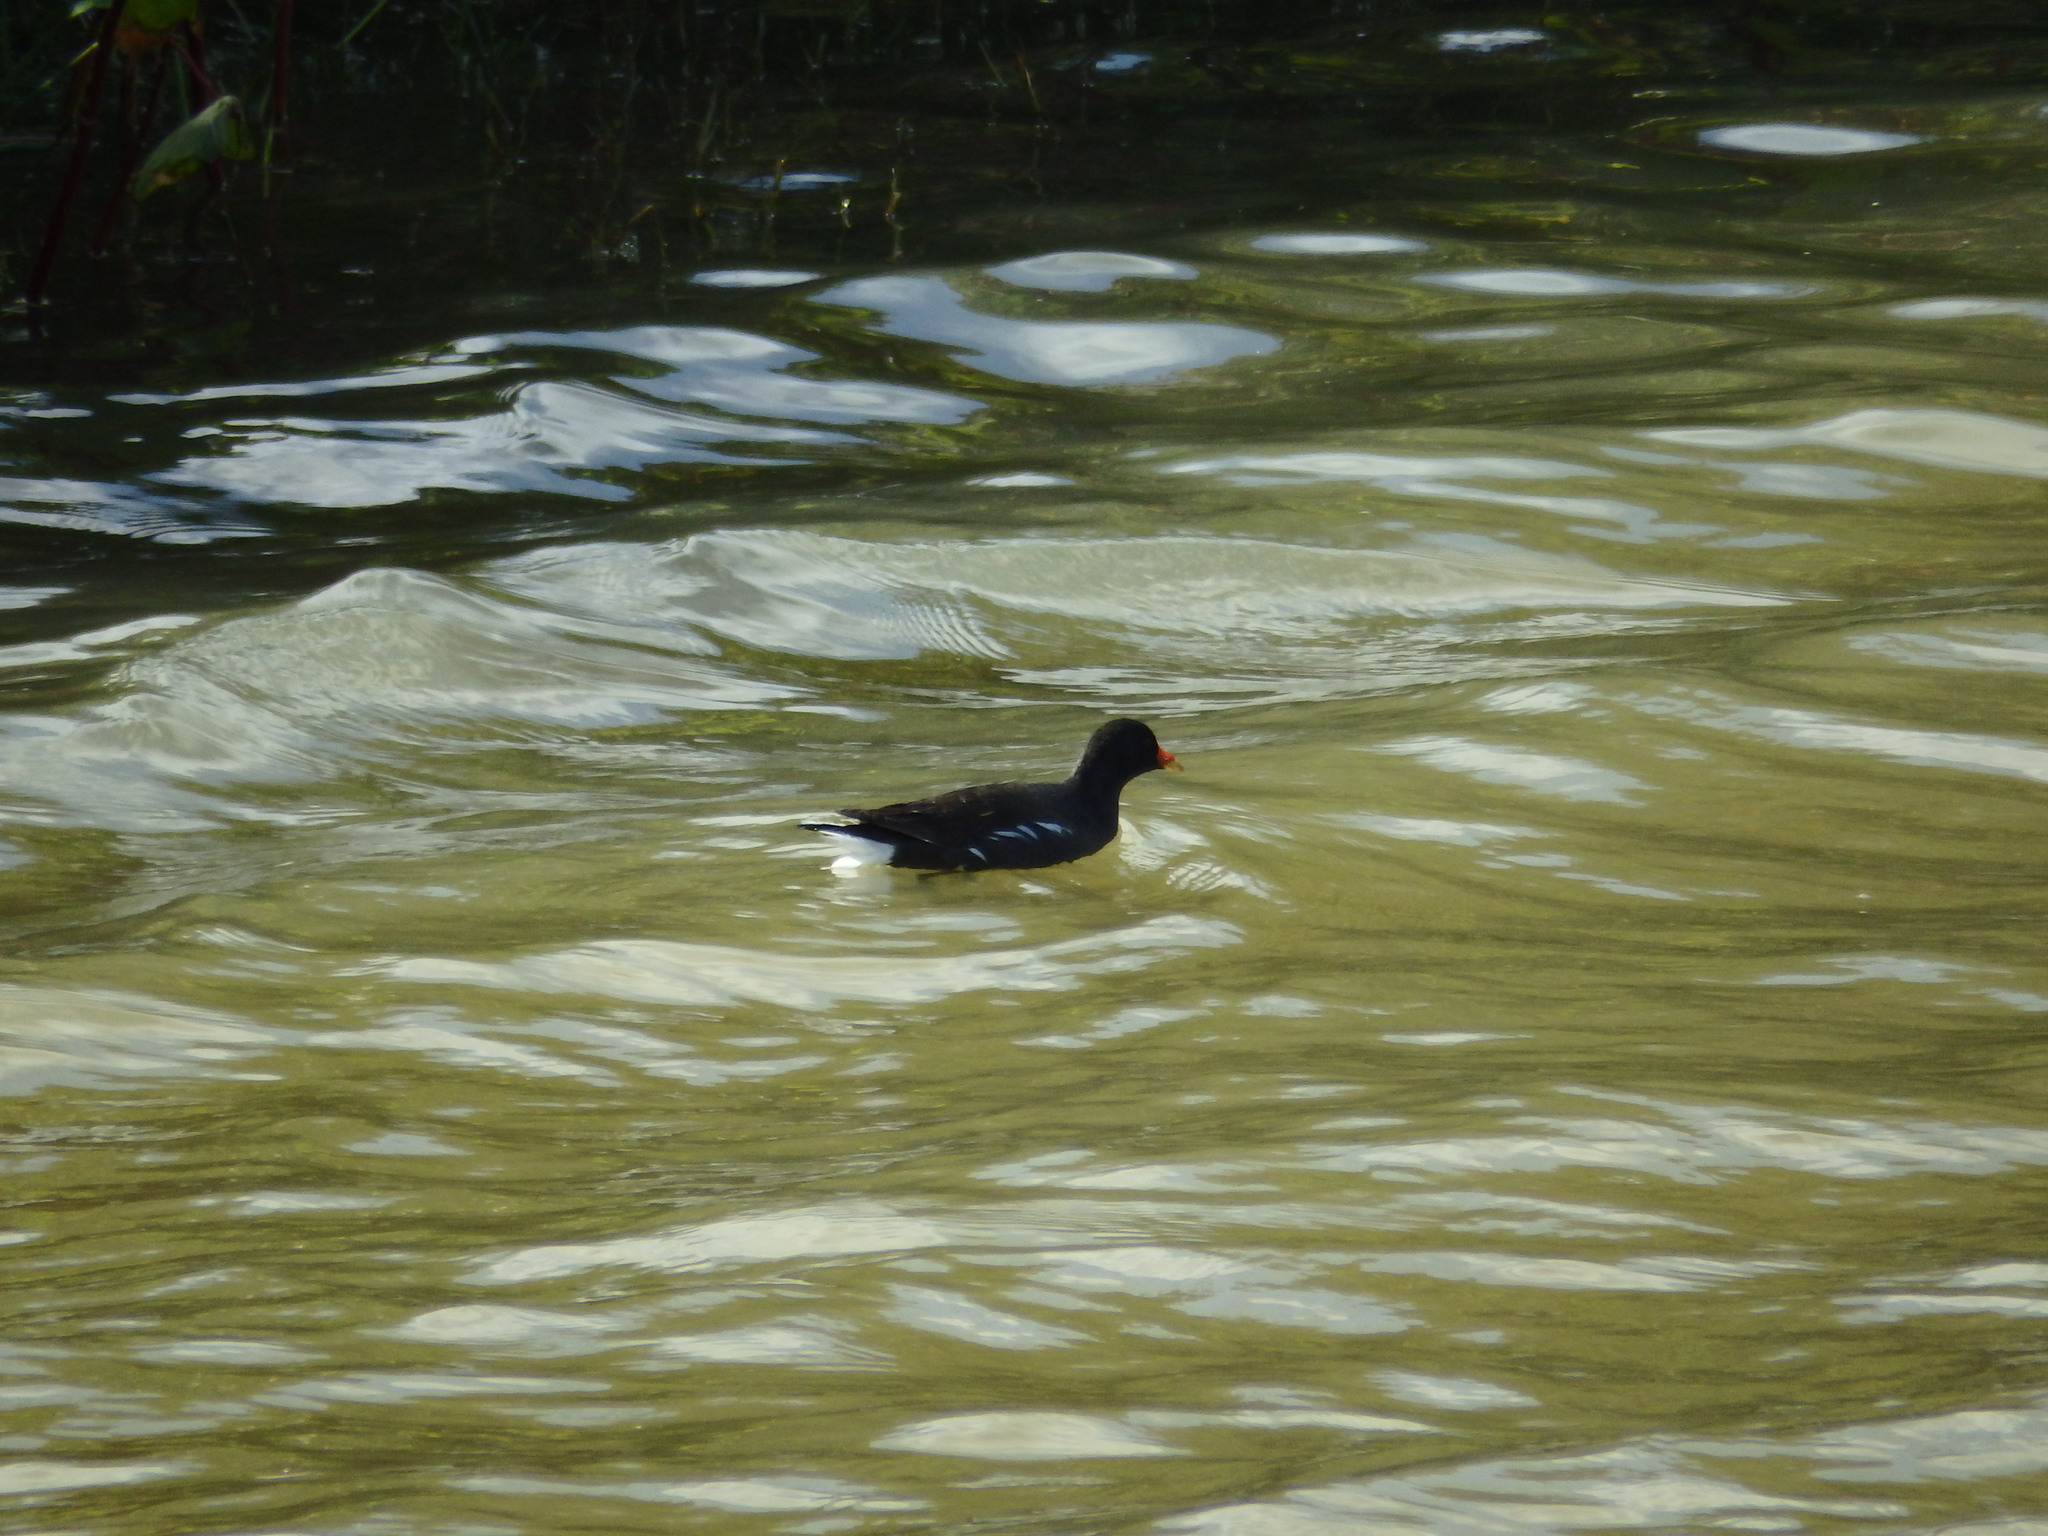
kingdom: Animalia
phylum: Chordata
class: Aves
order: Gruiformes
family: Rallidae
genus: Gallinula
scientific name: Gallinula chloropus
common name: Common moorhen
